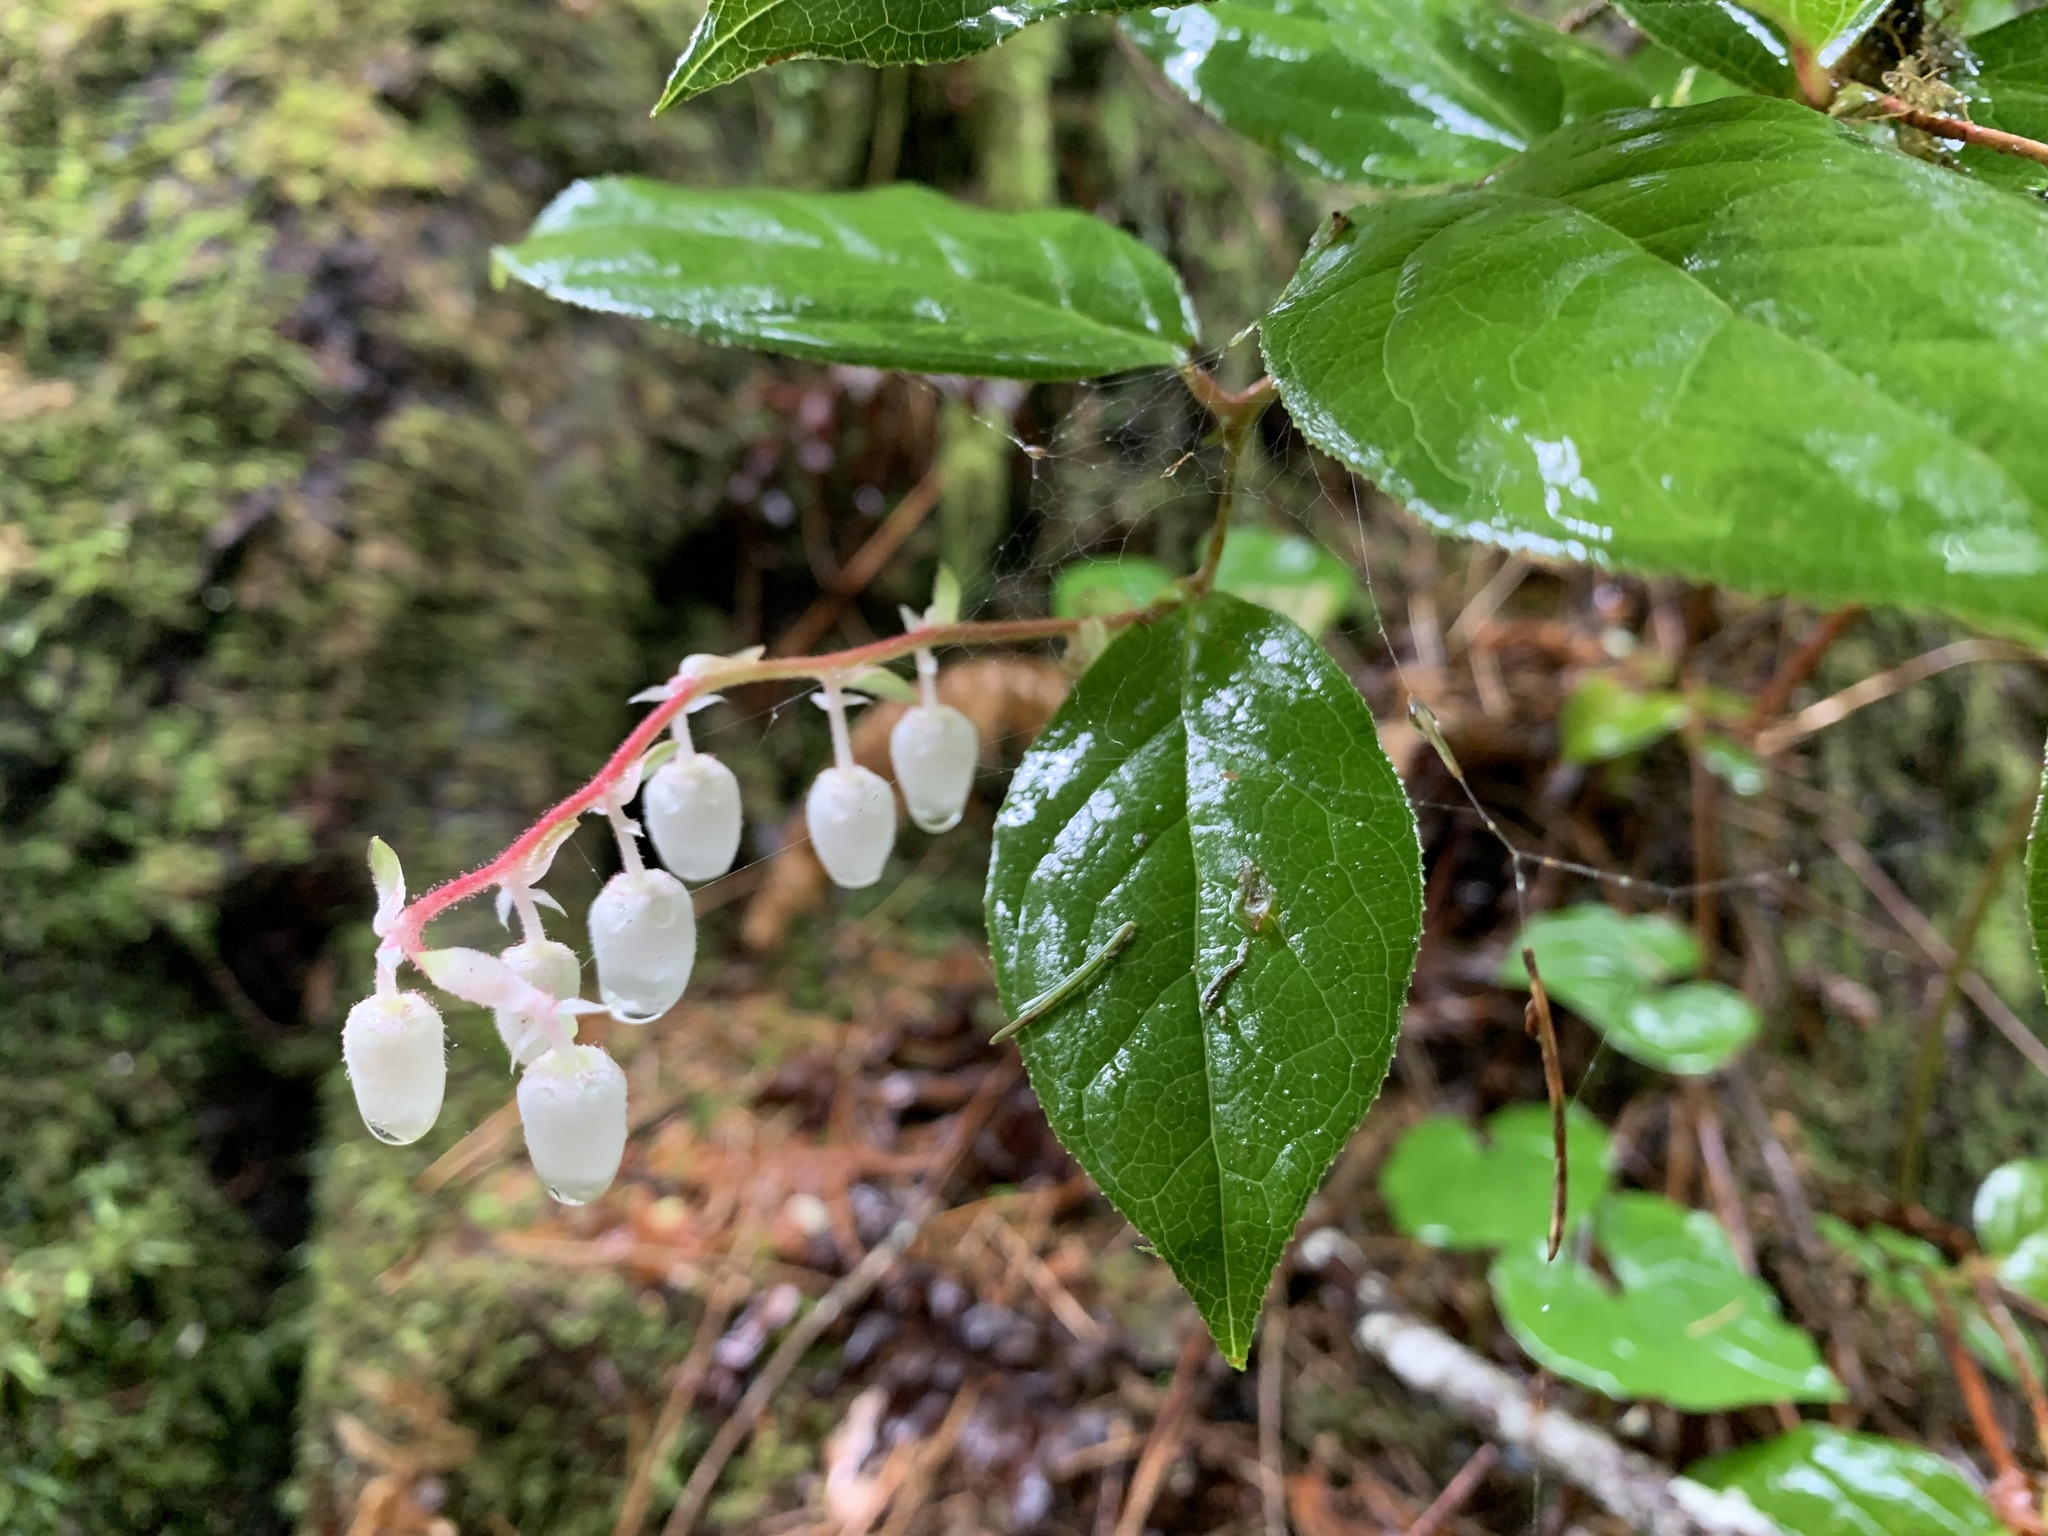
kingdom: Plantae
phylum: Tracheophyta
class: Magnoliopsida
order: Ericales
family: Ericaceae
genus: Gaultheria
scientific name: Gaultheria shallon
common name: Shallon
